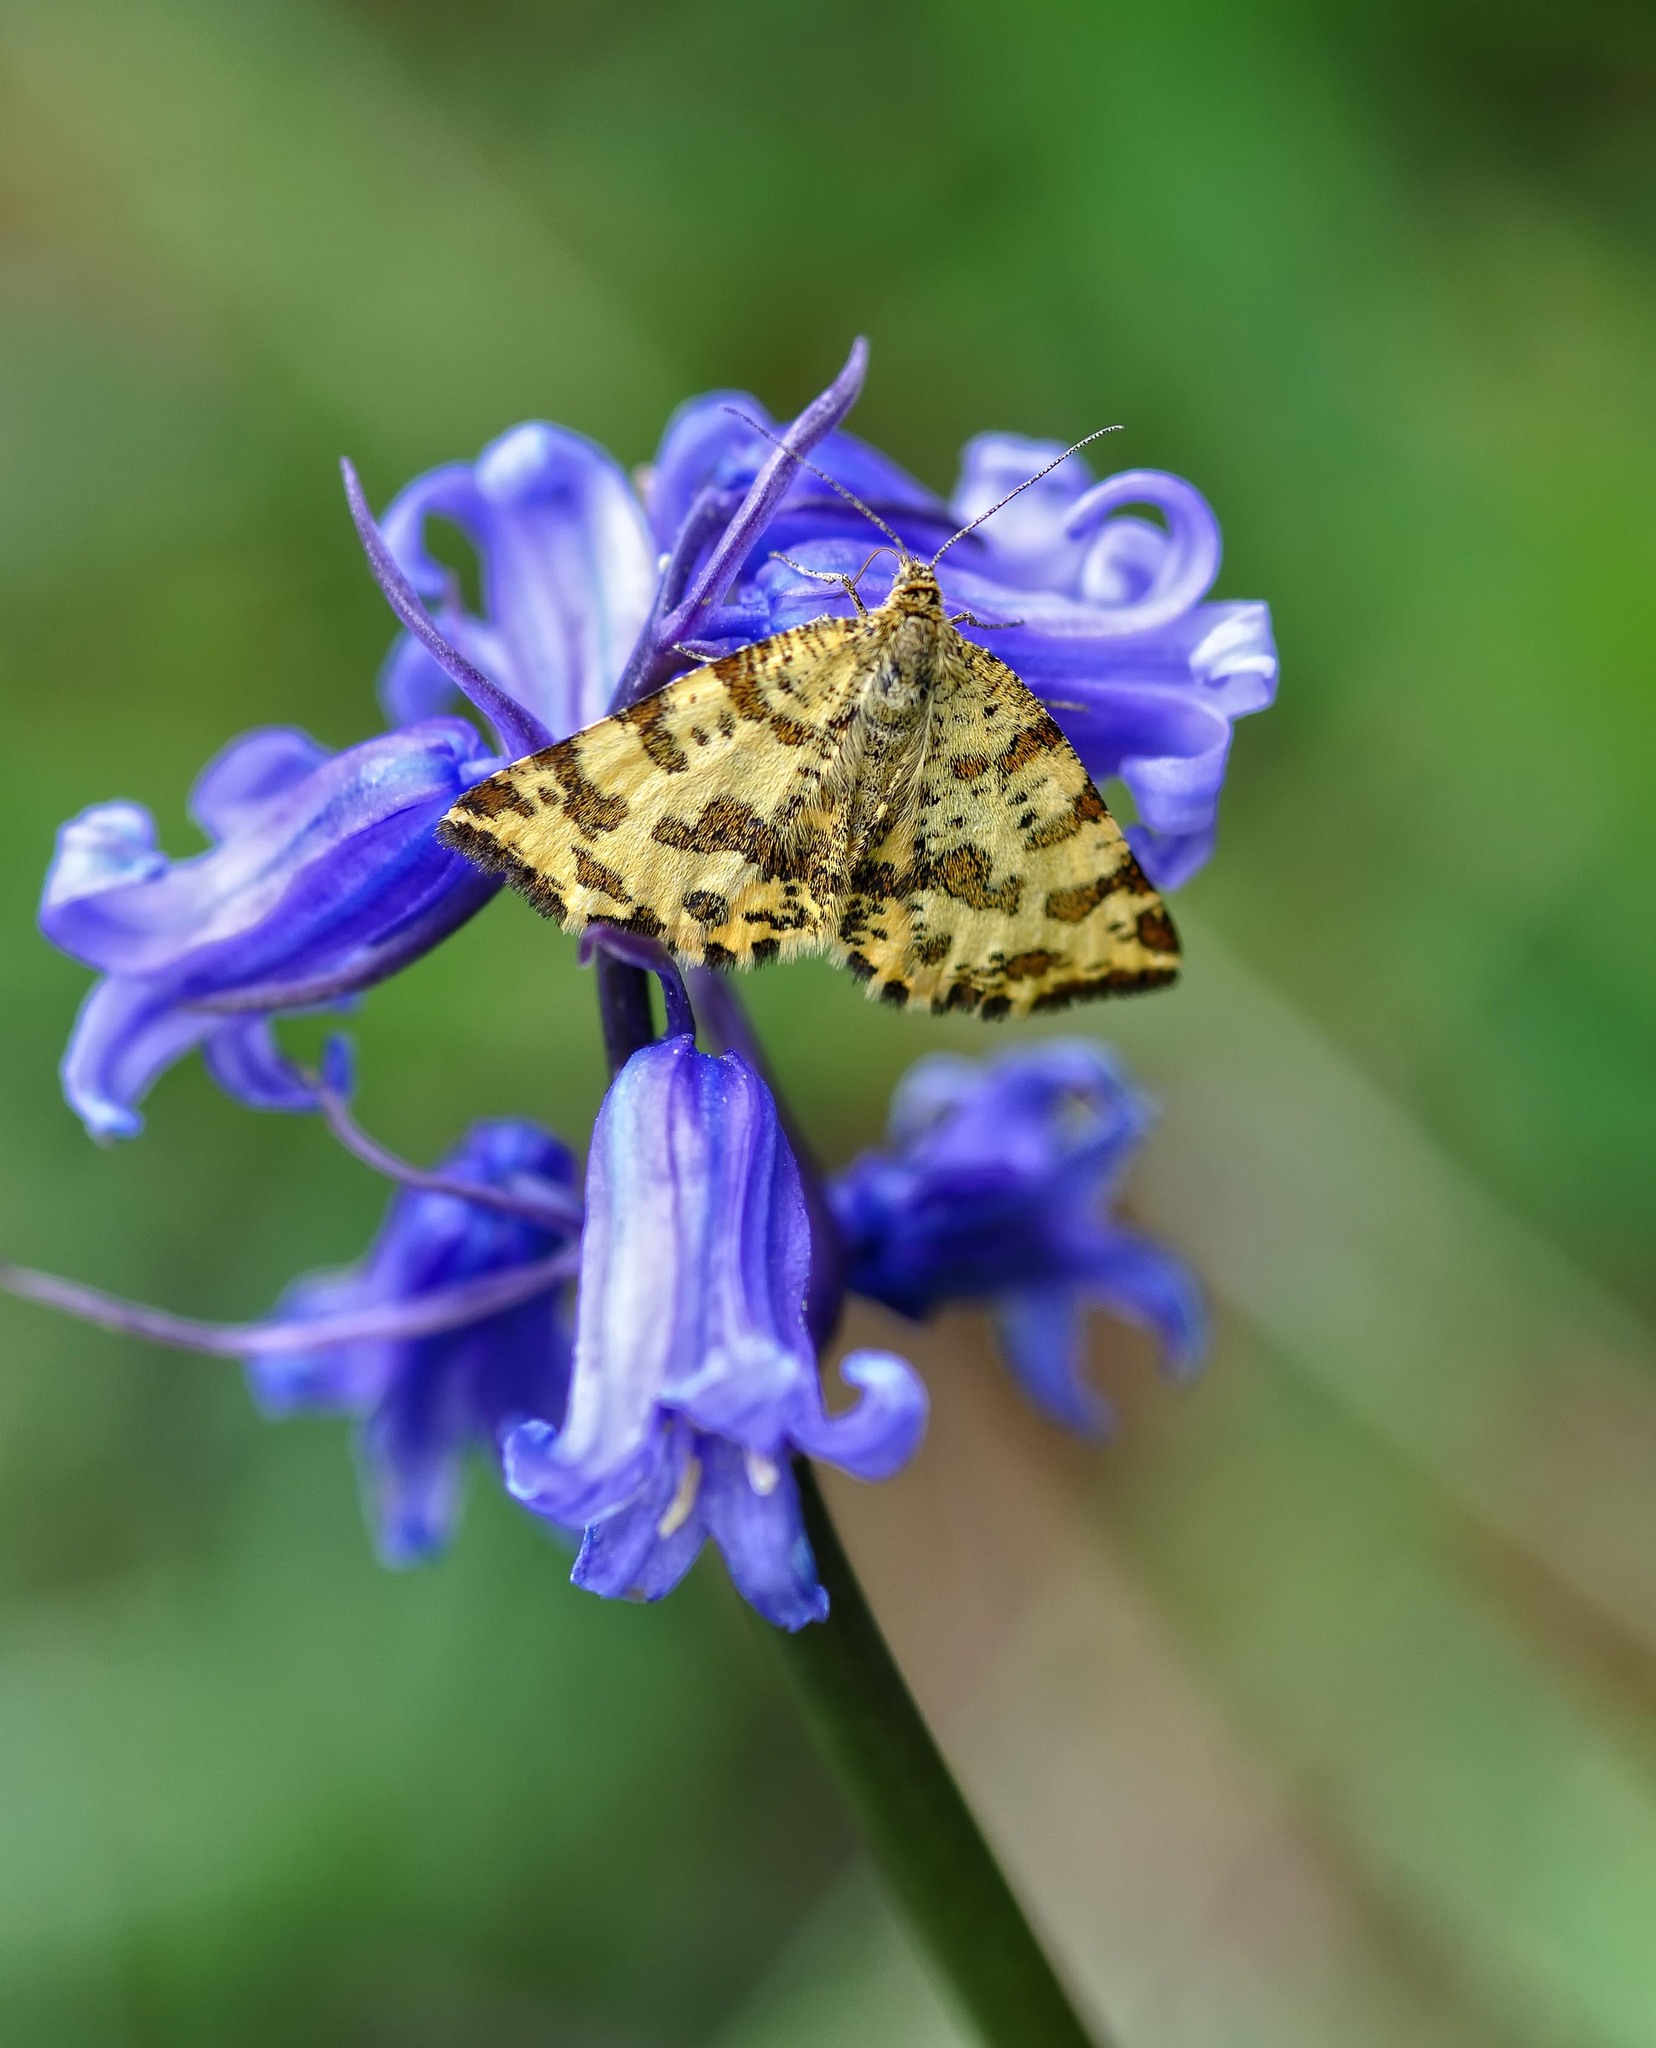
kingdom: Animalia
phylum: Arthropoda
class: Insecta
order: Lepidoptera
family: Geometridae
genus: Pseudopanthera
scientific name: Pseudopanthera macularia
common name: Speckled yellow
